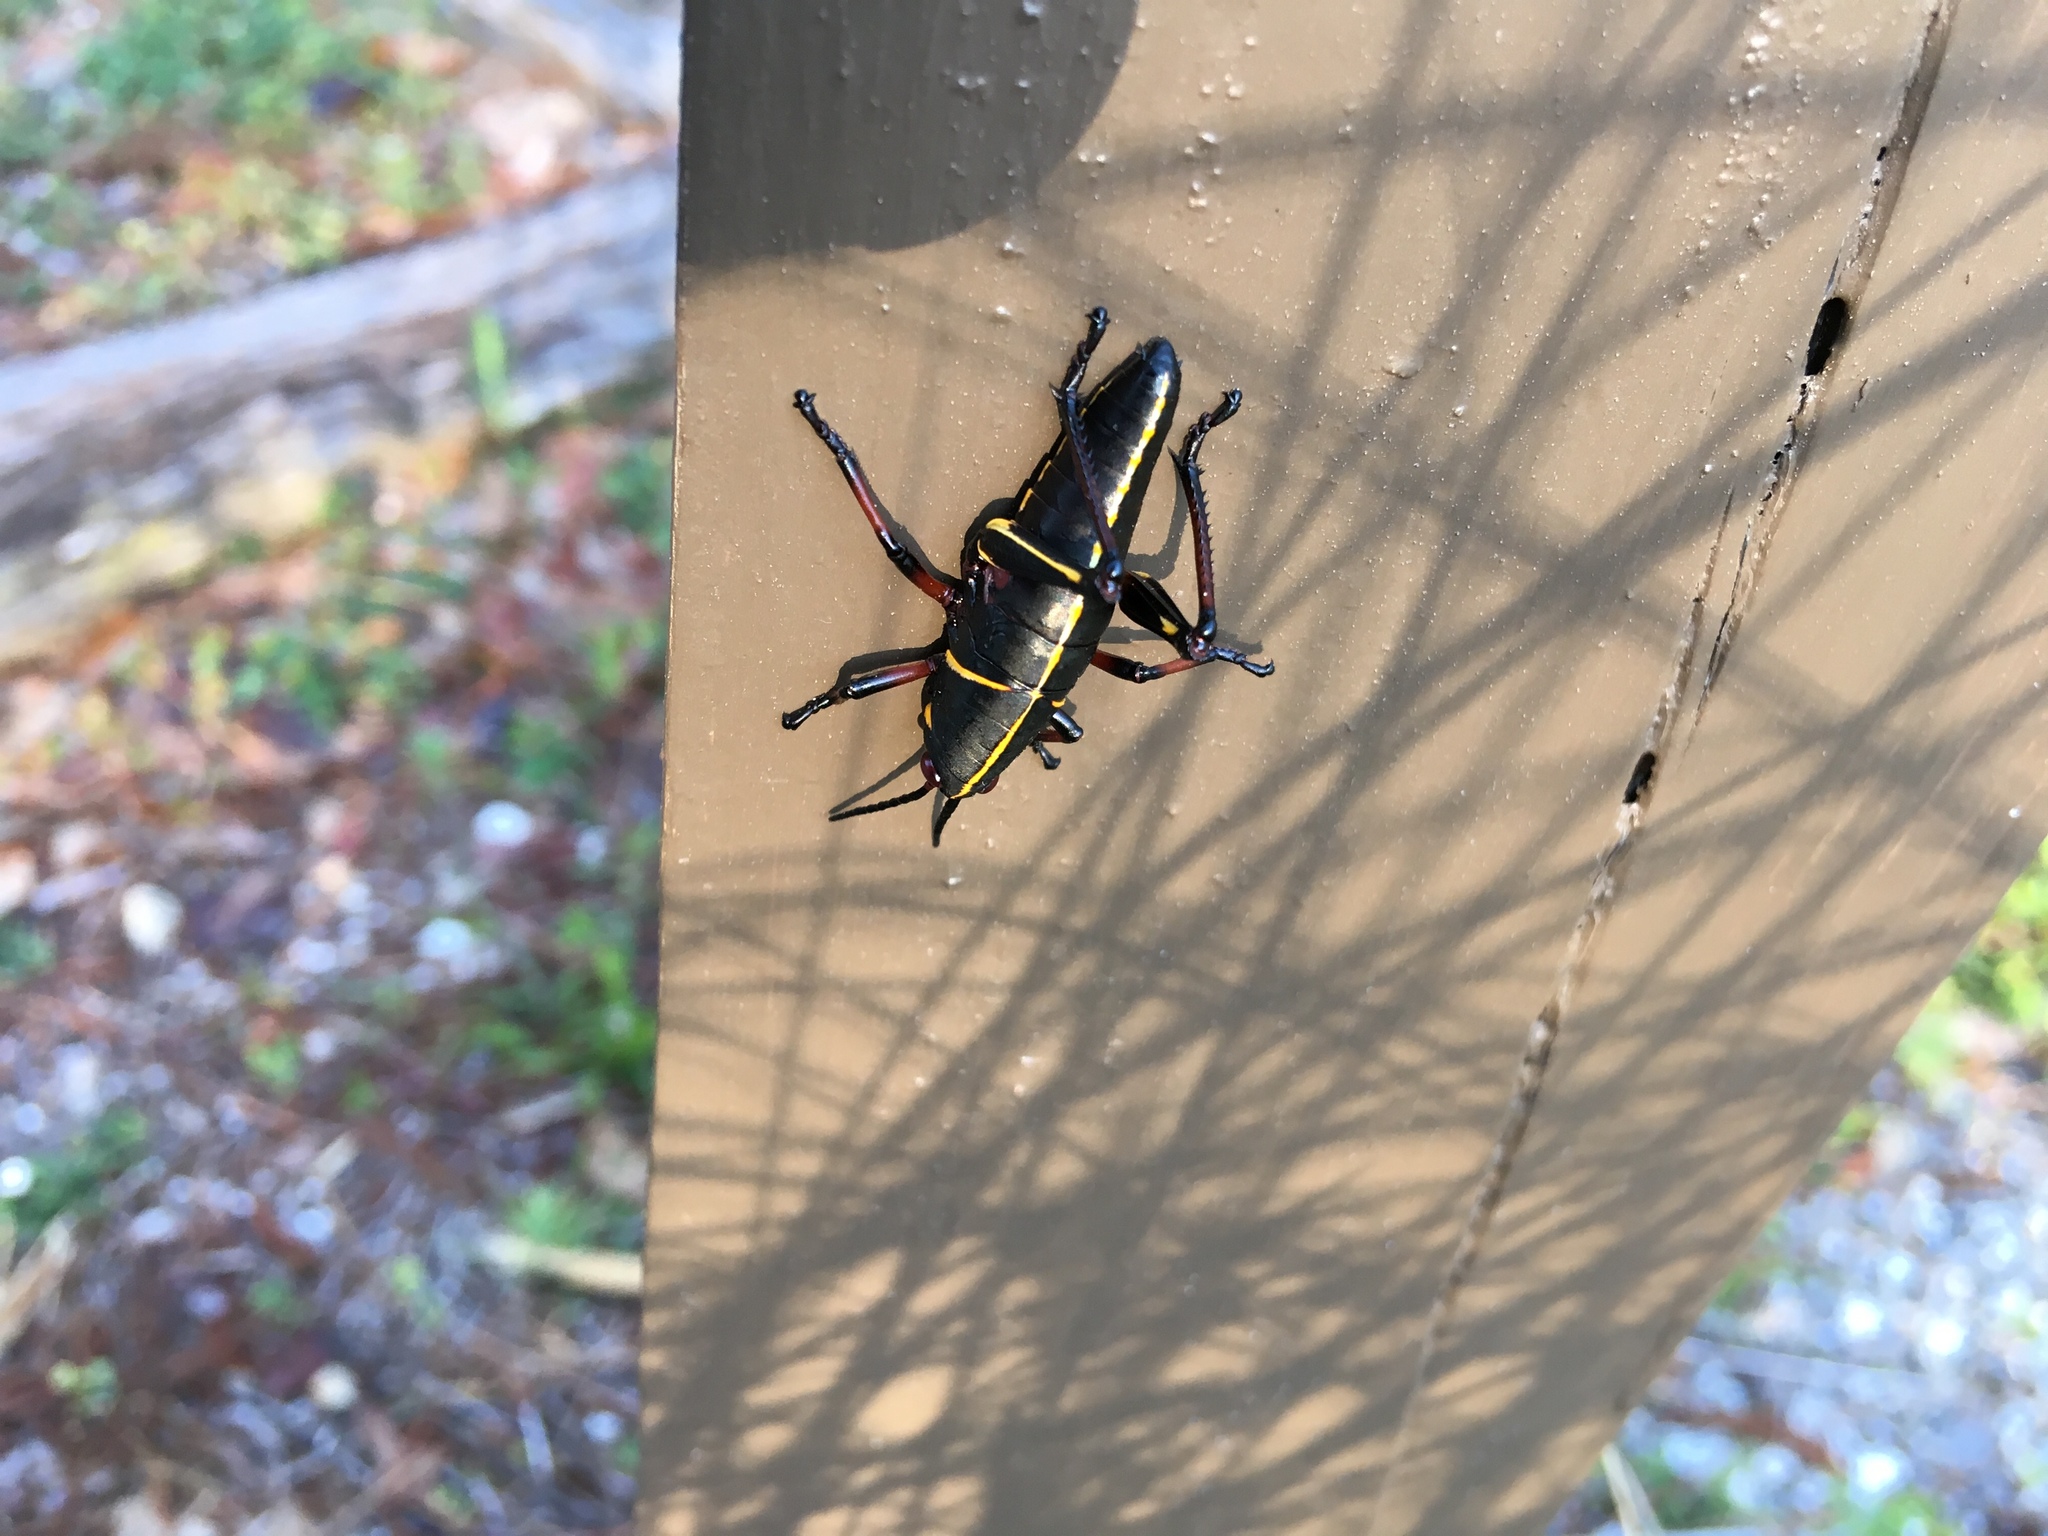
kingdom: Animalia
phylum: Arthropoda
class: Insecta
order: Orthoptera
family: Romaleidae
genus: Romalea
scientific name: Romalea microptera
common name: Eastern lubber grasshopper
